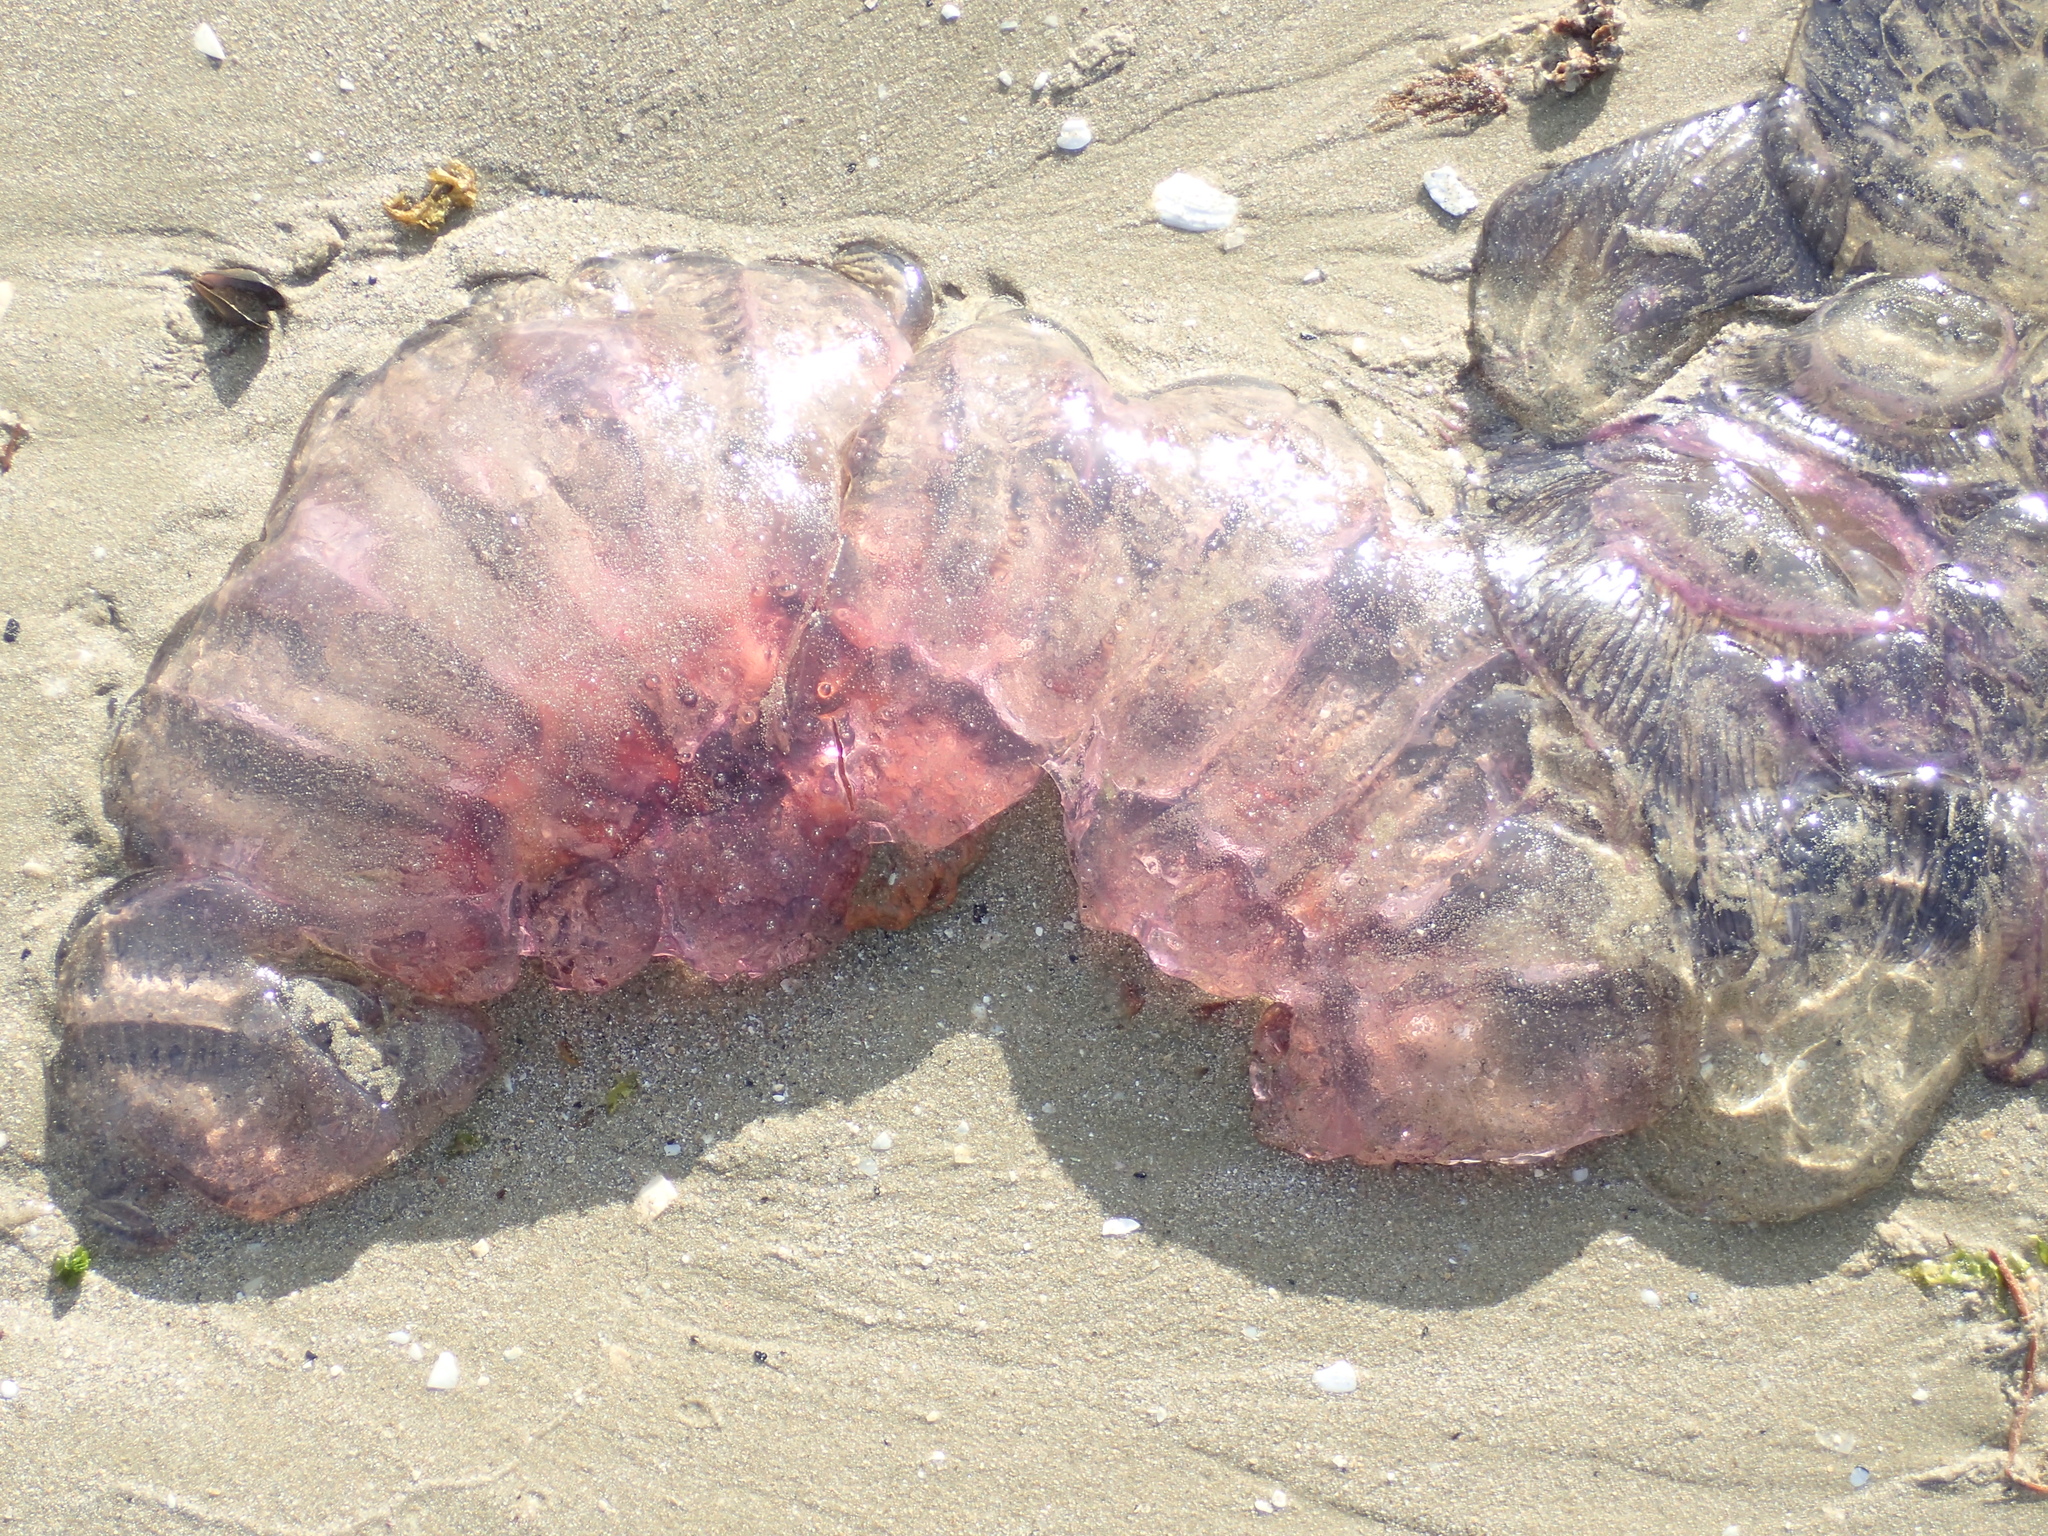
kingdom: Animalia
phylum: Cnidaria
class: Scyphozoa
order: Semaeostomeae
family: Cyaneidae
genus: Cyanea
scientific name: Cyanea
